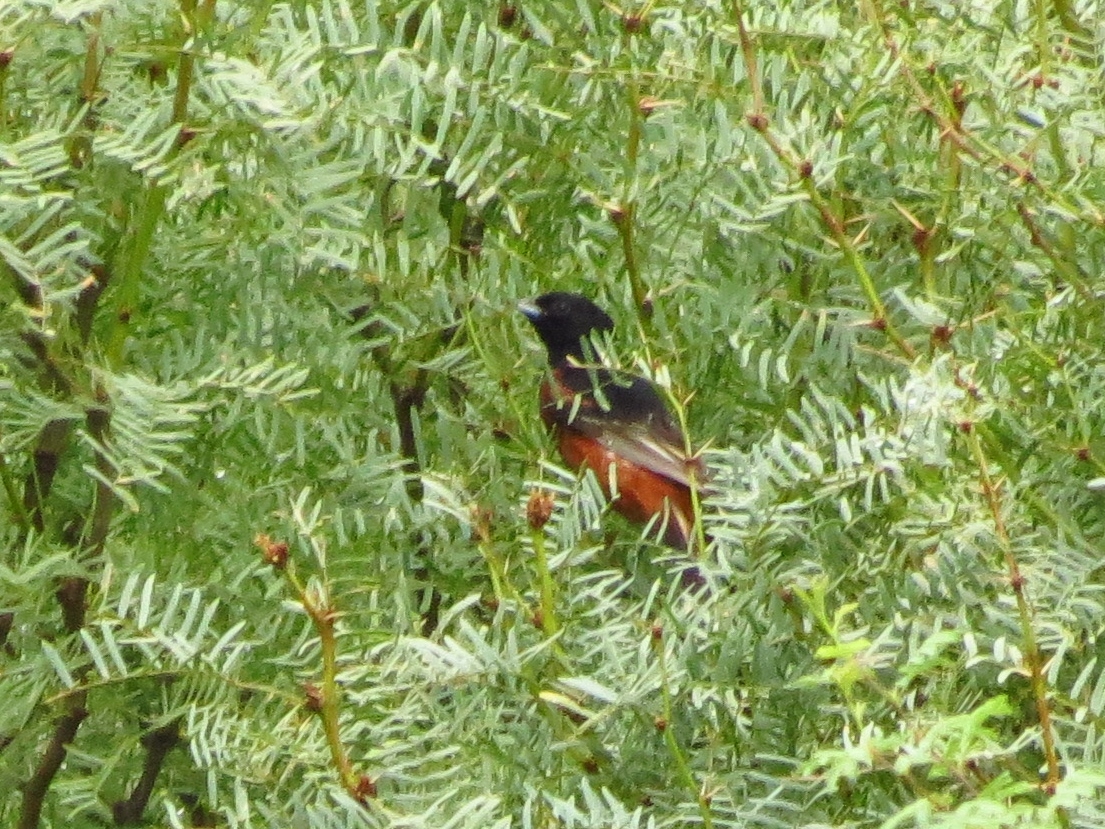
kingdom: Animalia
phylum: Chordata
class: Aves
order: Passeriformes
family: Icteridae
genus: Icterus
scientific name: Icterus spurius
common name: Orchard oriole
